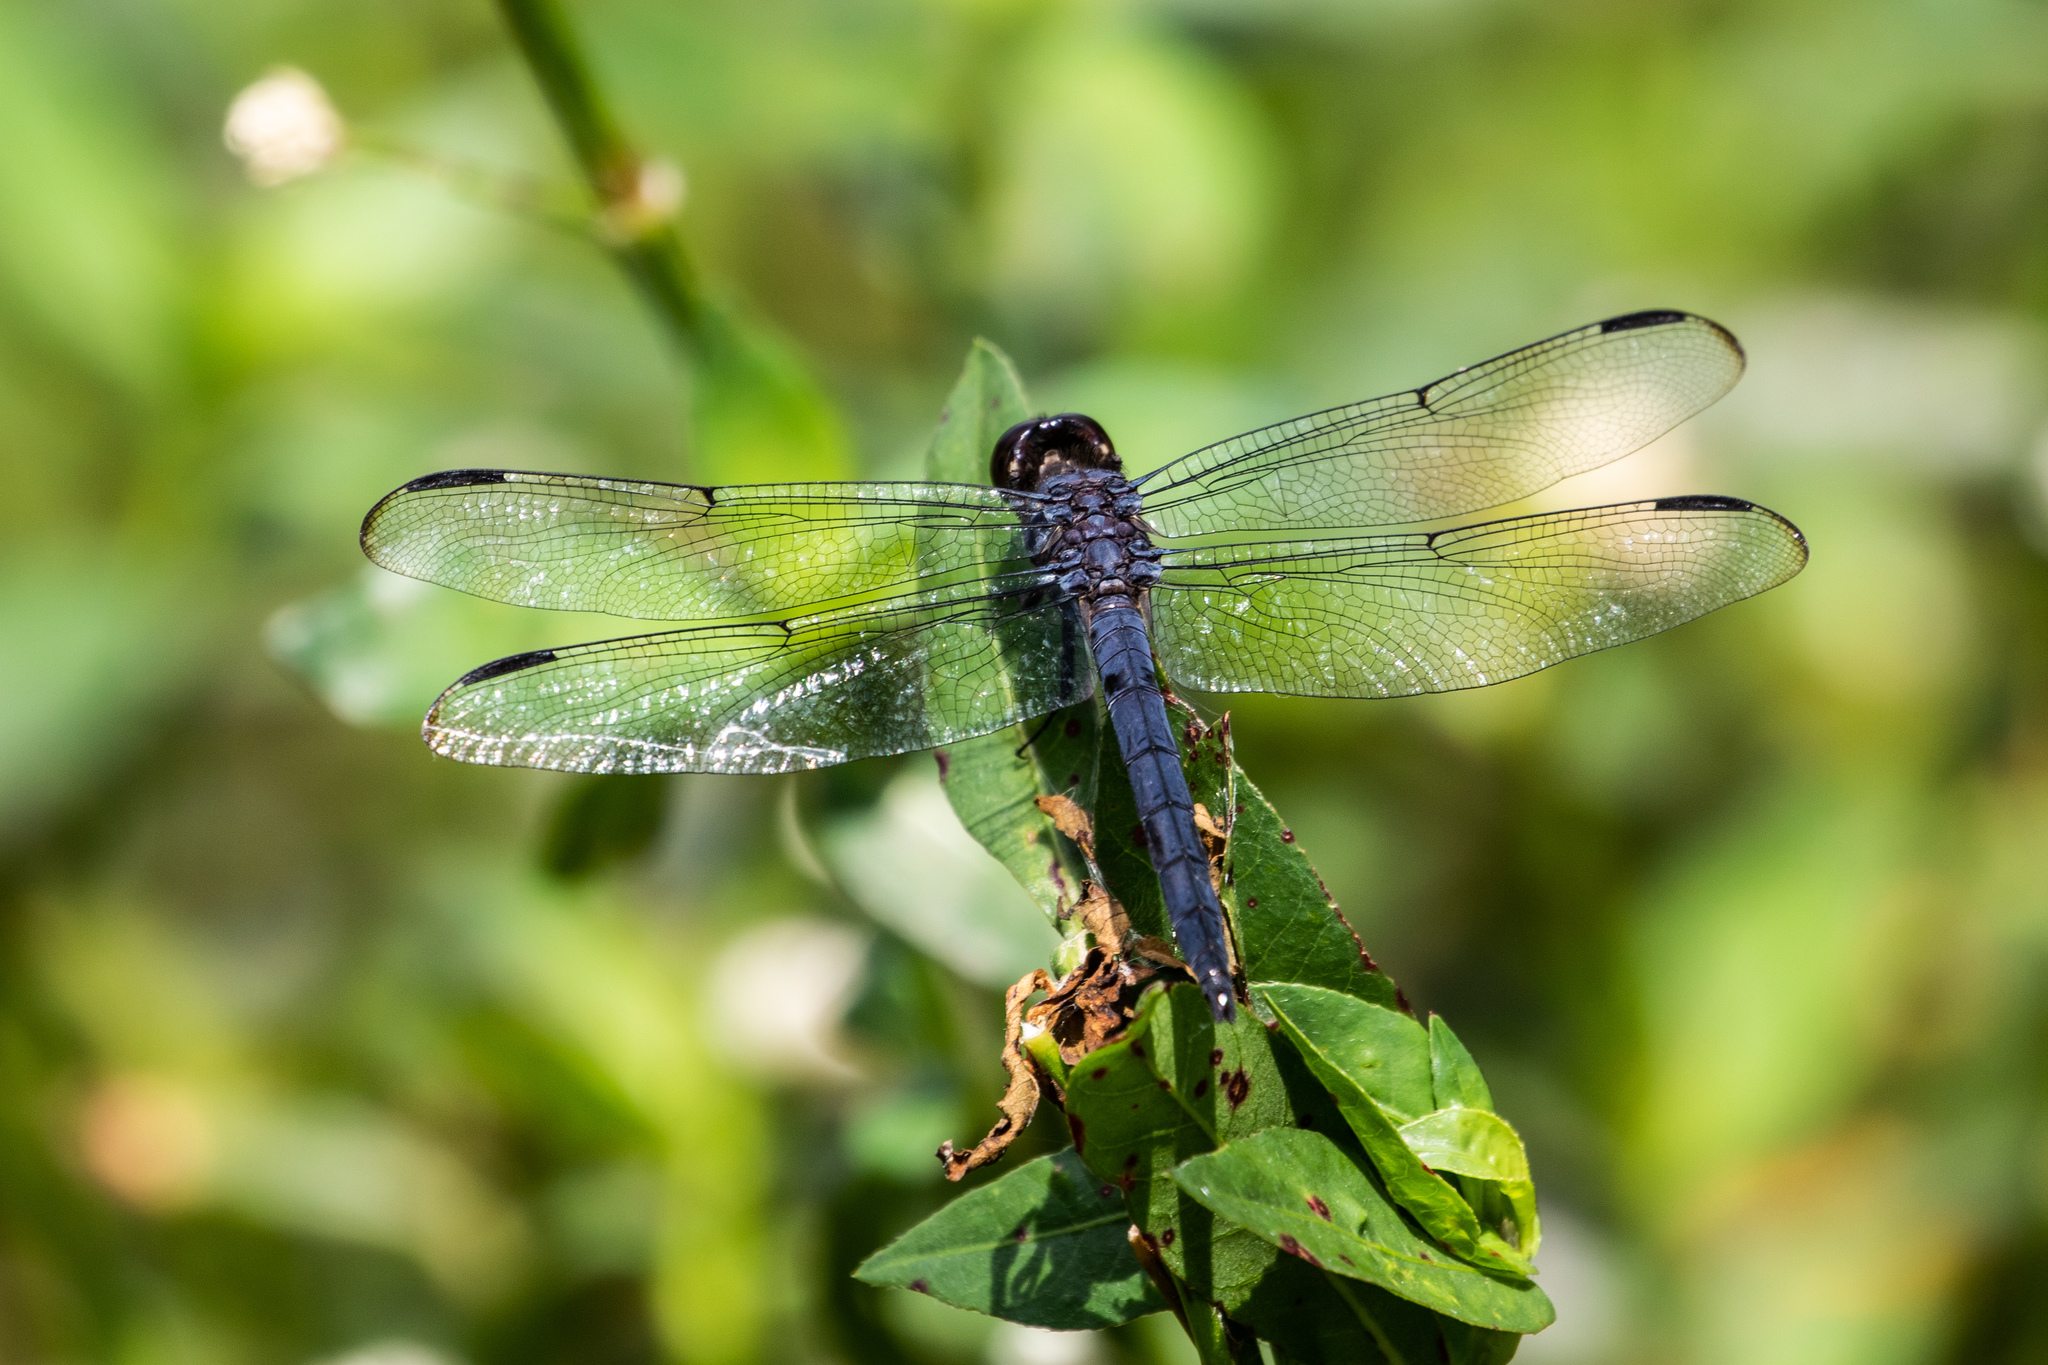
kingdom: Animalia
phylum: Arthropoda
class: Insecta
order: Odonata
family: Libellulidae
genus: Libellula
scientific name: Libellula incesta
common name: Slaty skimmer
